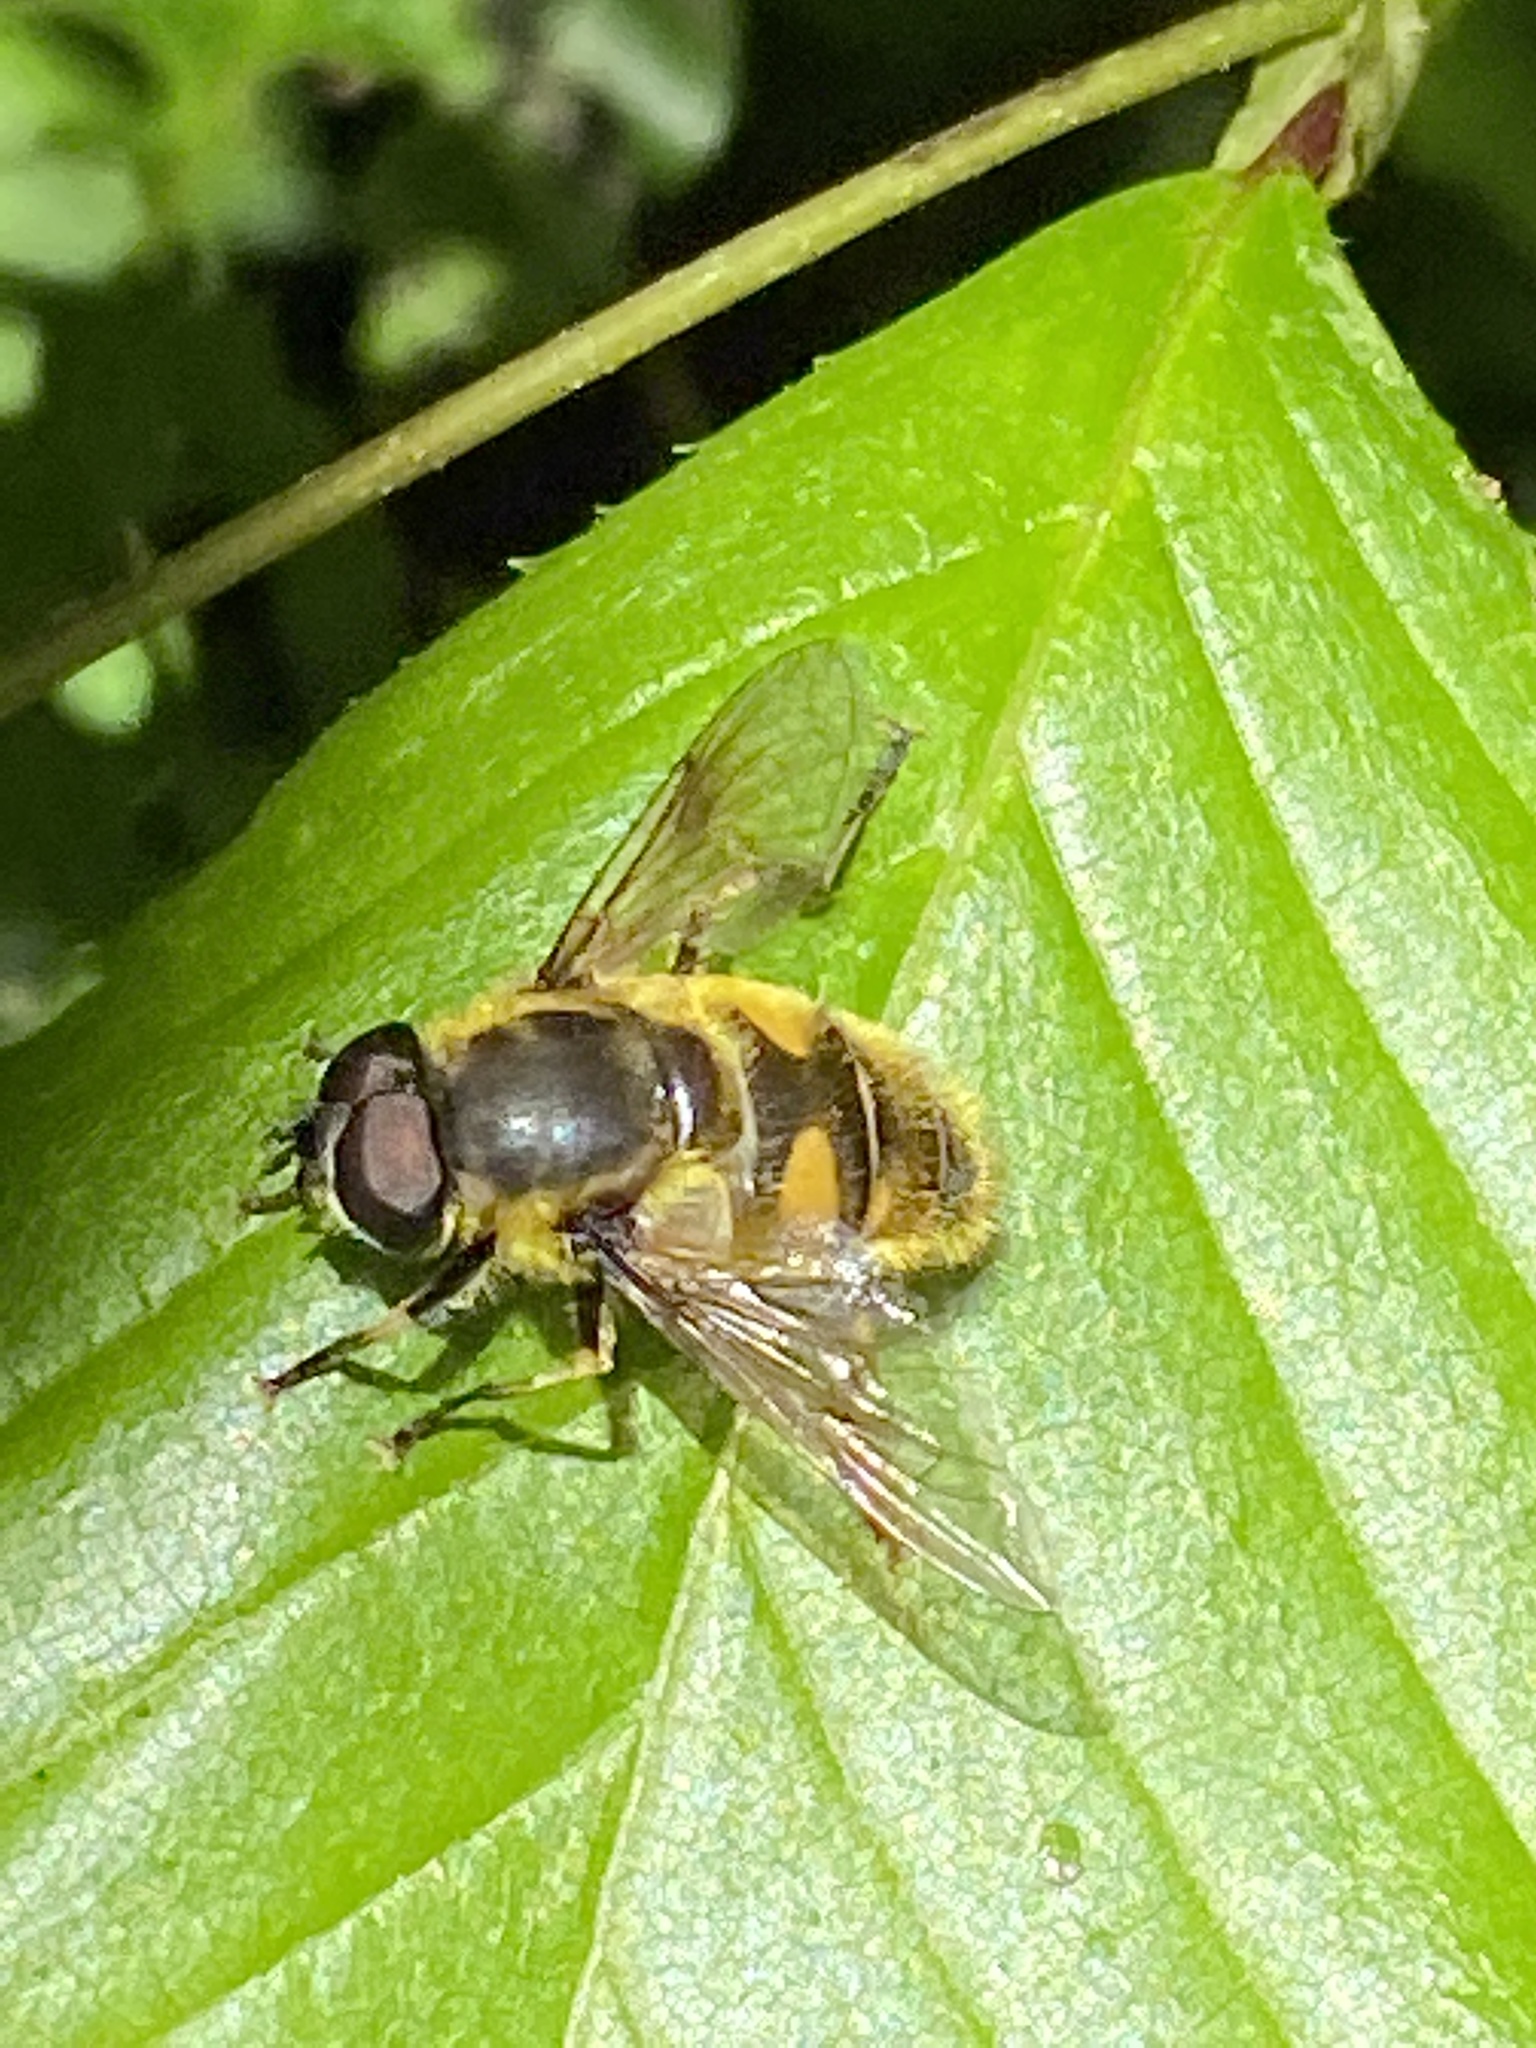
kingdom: Animalia
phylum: Arthropoda
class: Insecta
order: Diptera
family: Syrphidae
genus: Myathropa
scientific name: Myathropa florea
